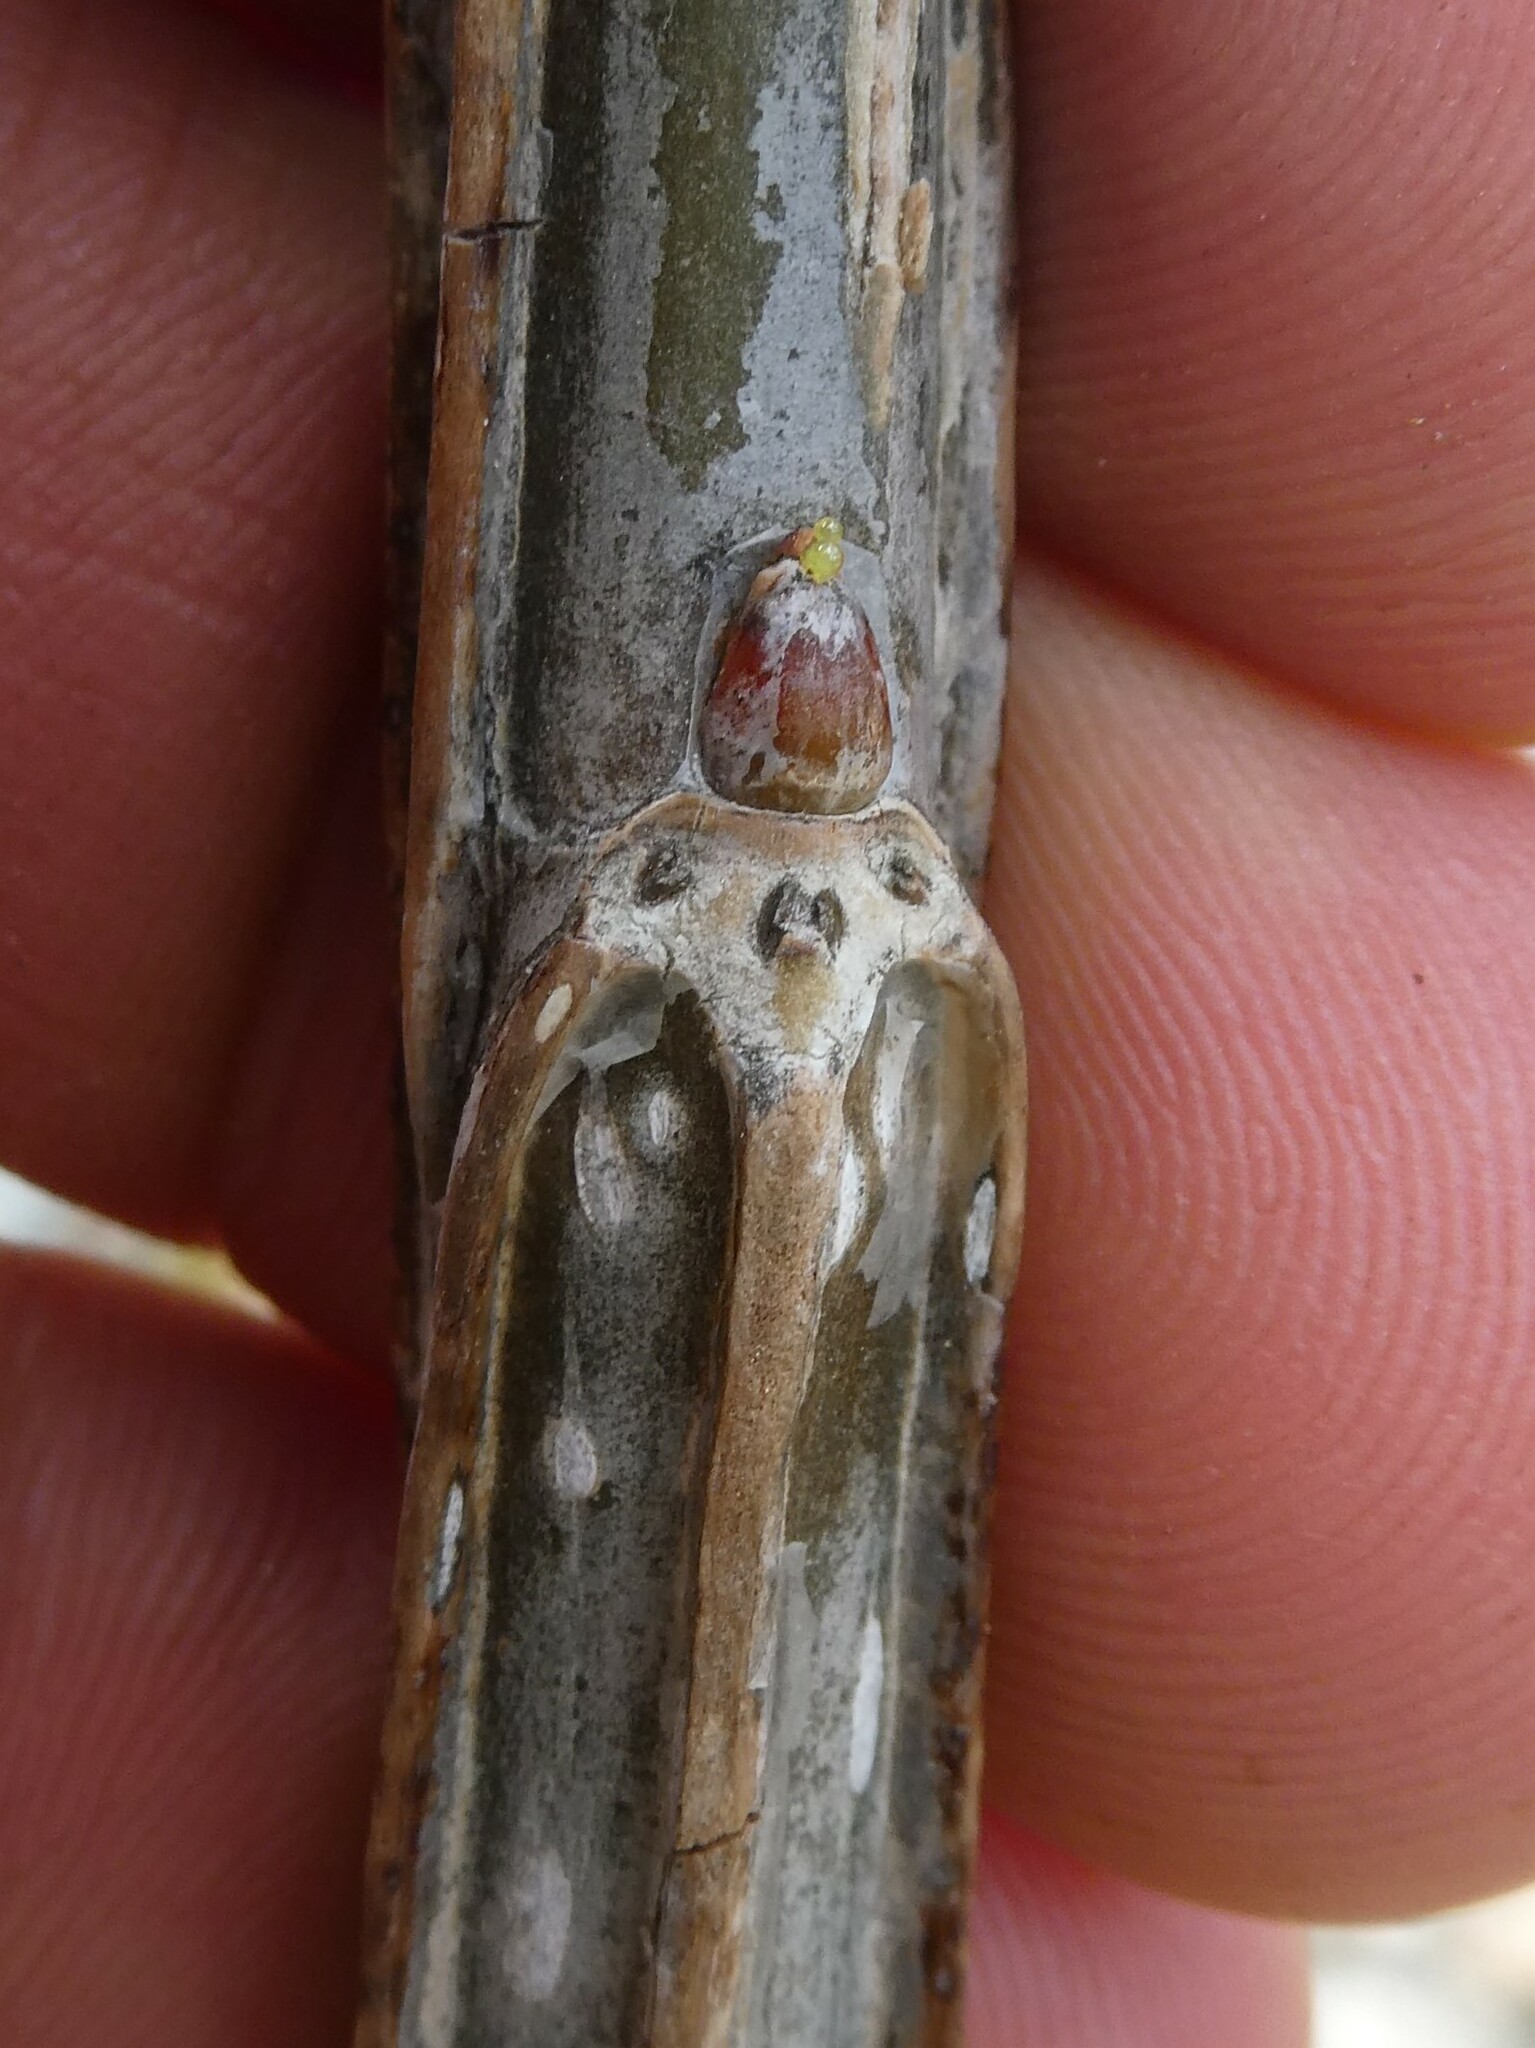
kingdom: Plantae
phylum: Tracheophyta
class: Magnoliopsida
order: Malpighiales
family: Salicaceae
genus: Populus
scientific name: Populus deltoides
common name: Eastern cottonwood
